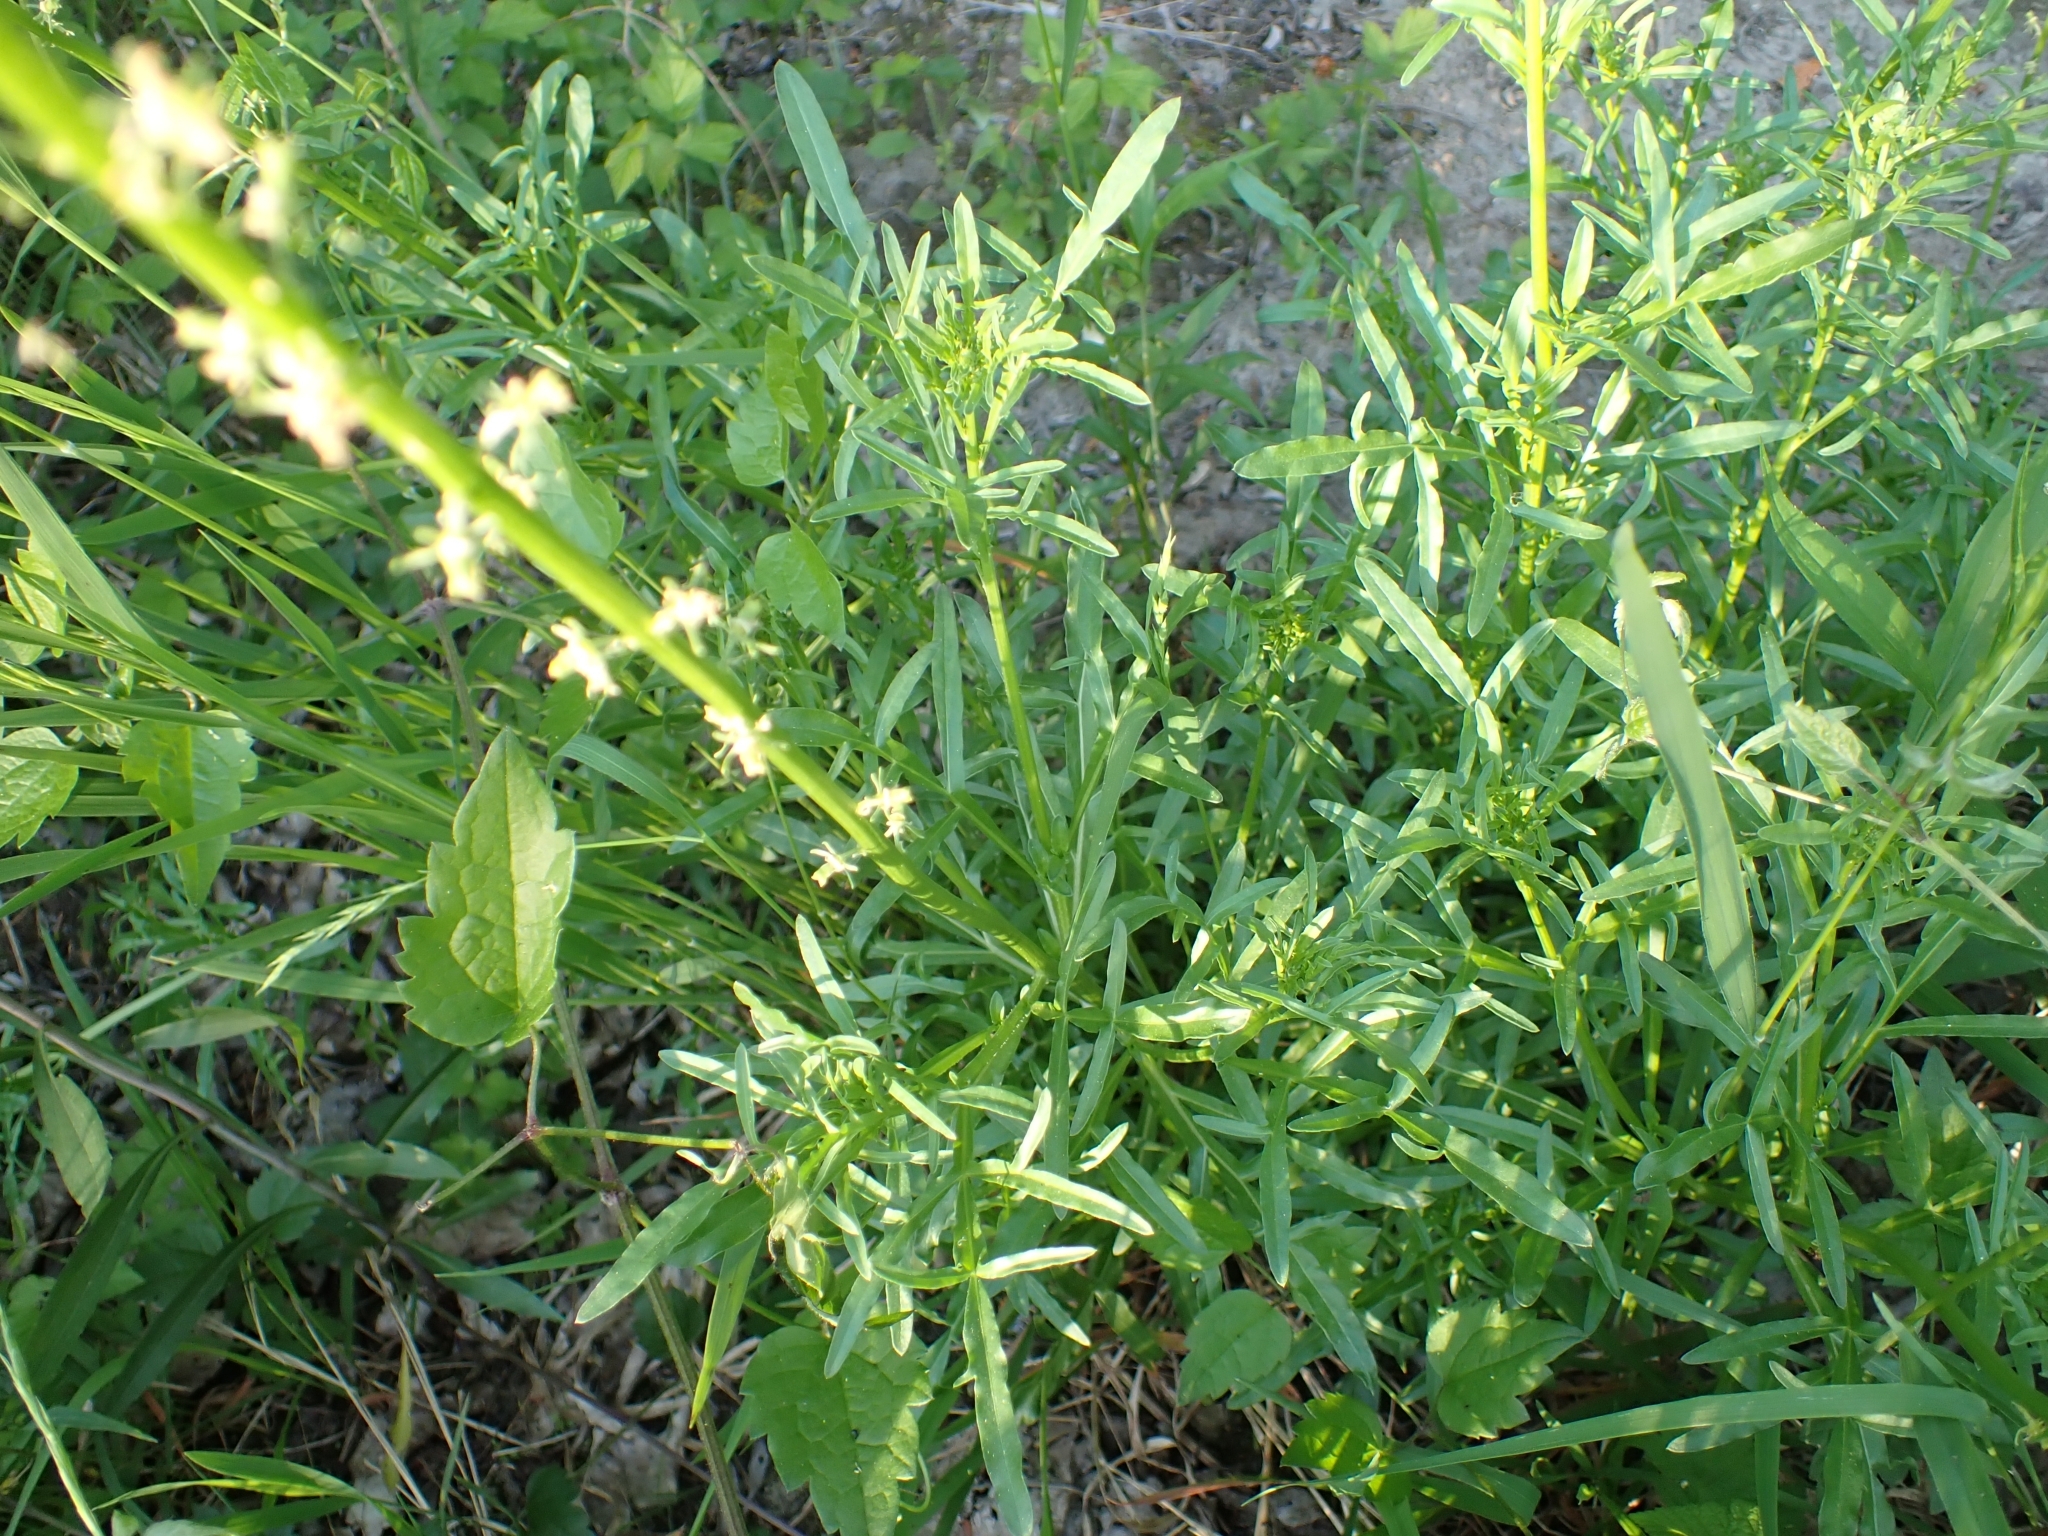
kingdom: Plantae
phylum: Tracheophyta
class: Magnoliopsida
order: Brassicales
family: Resedaceae
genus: Reseda
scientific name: Reseda lutea
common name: Wild mignonette
